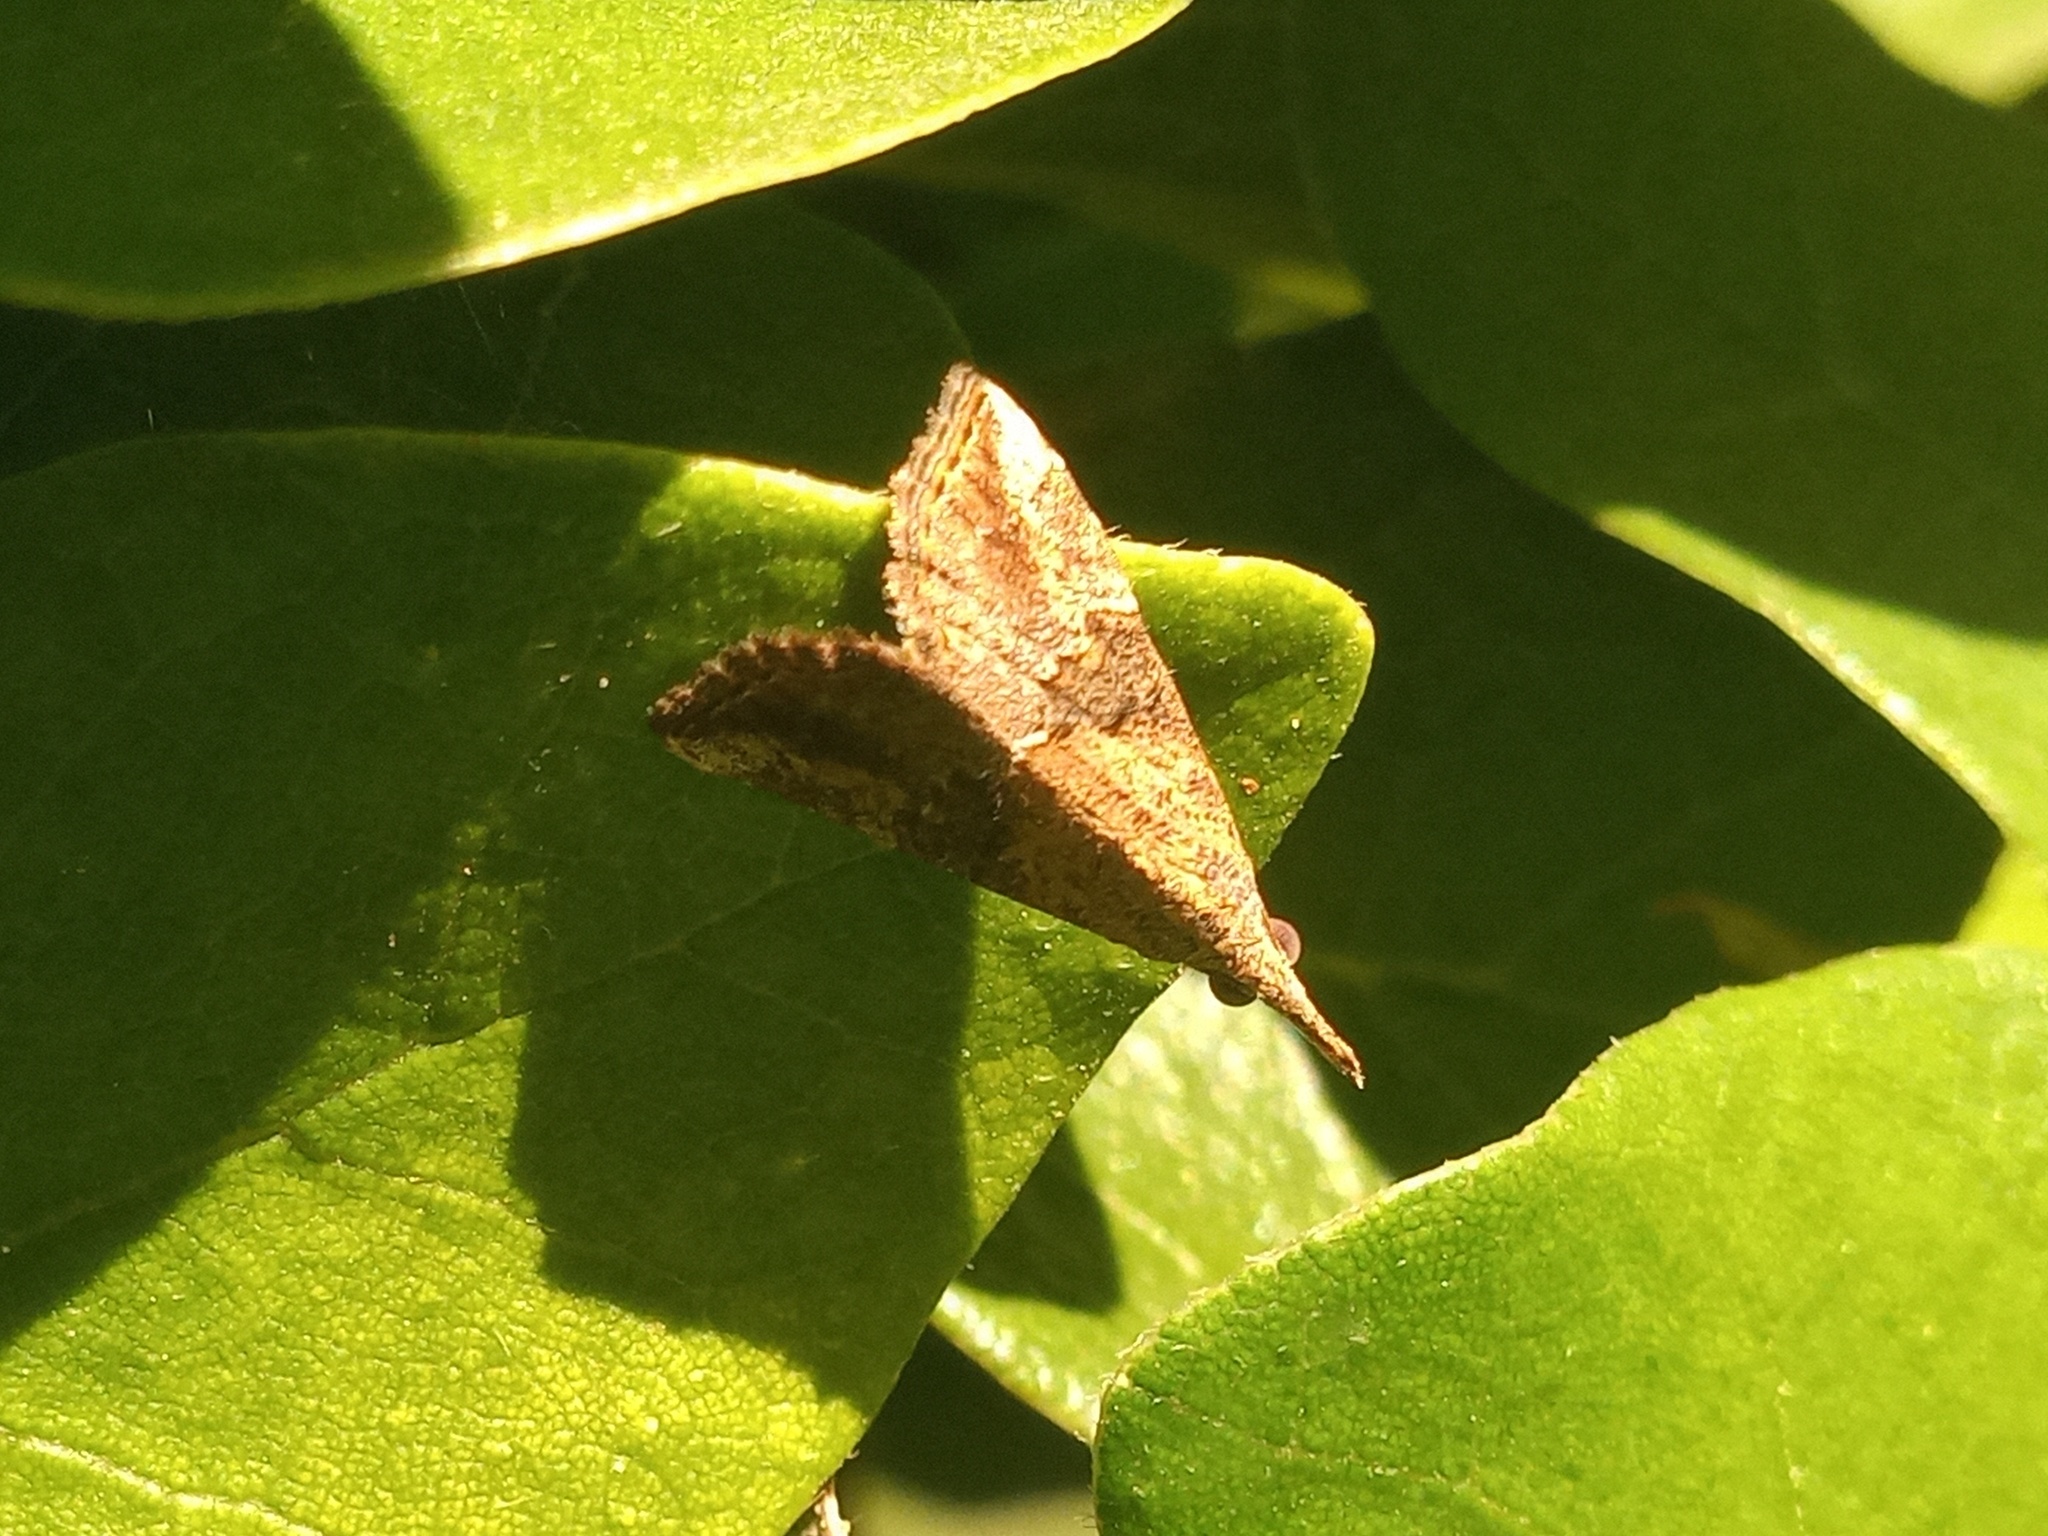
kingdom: Animalia
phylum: Arthropoda
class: Insecta
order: Lepidoptera
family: Erebidae
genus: Hypena
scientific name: Hypena minualis
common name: Sooty snout
